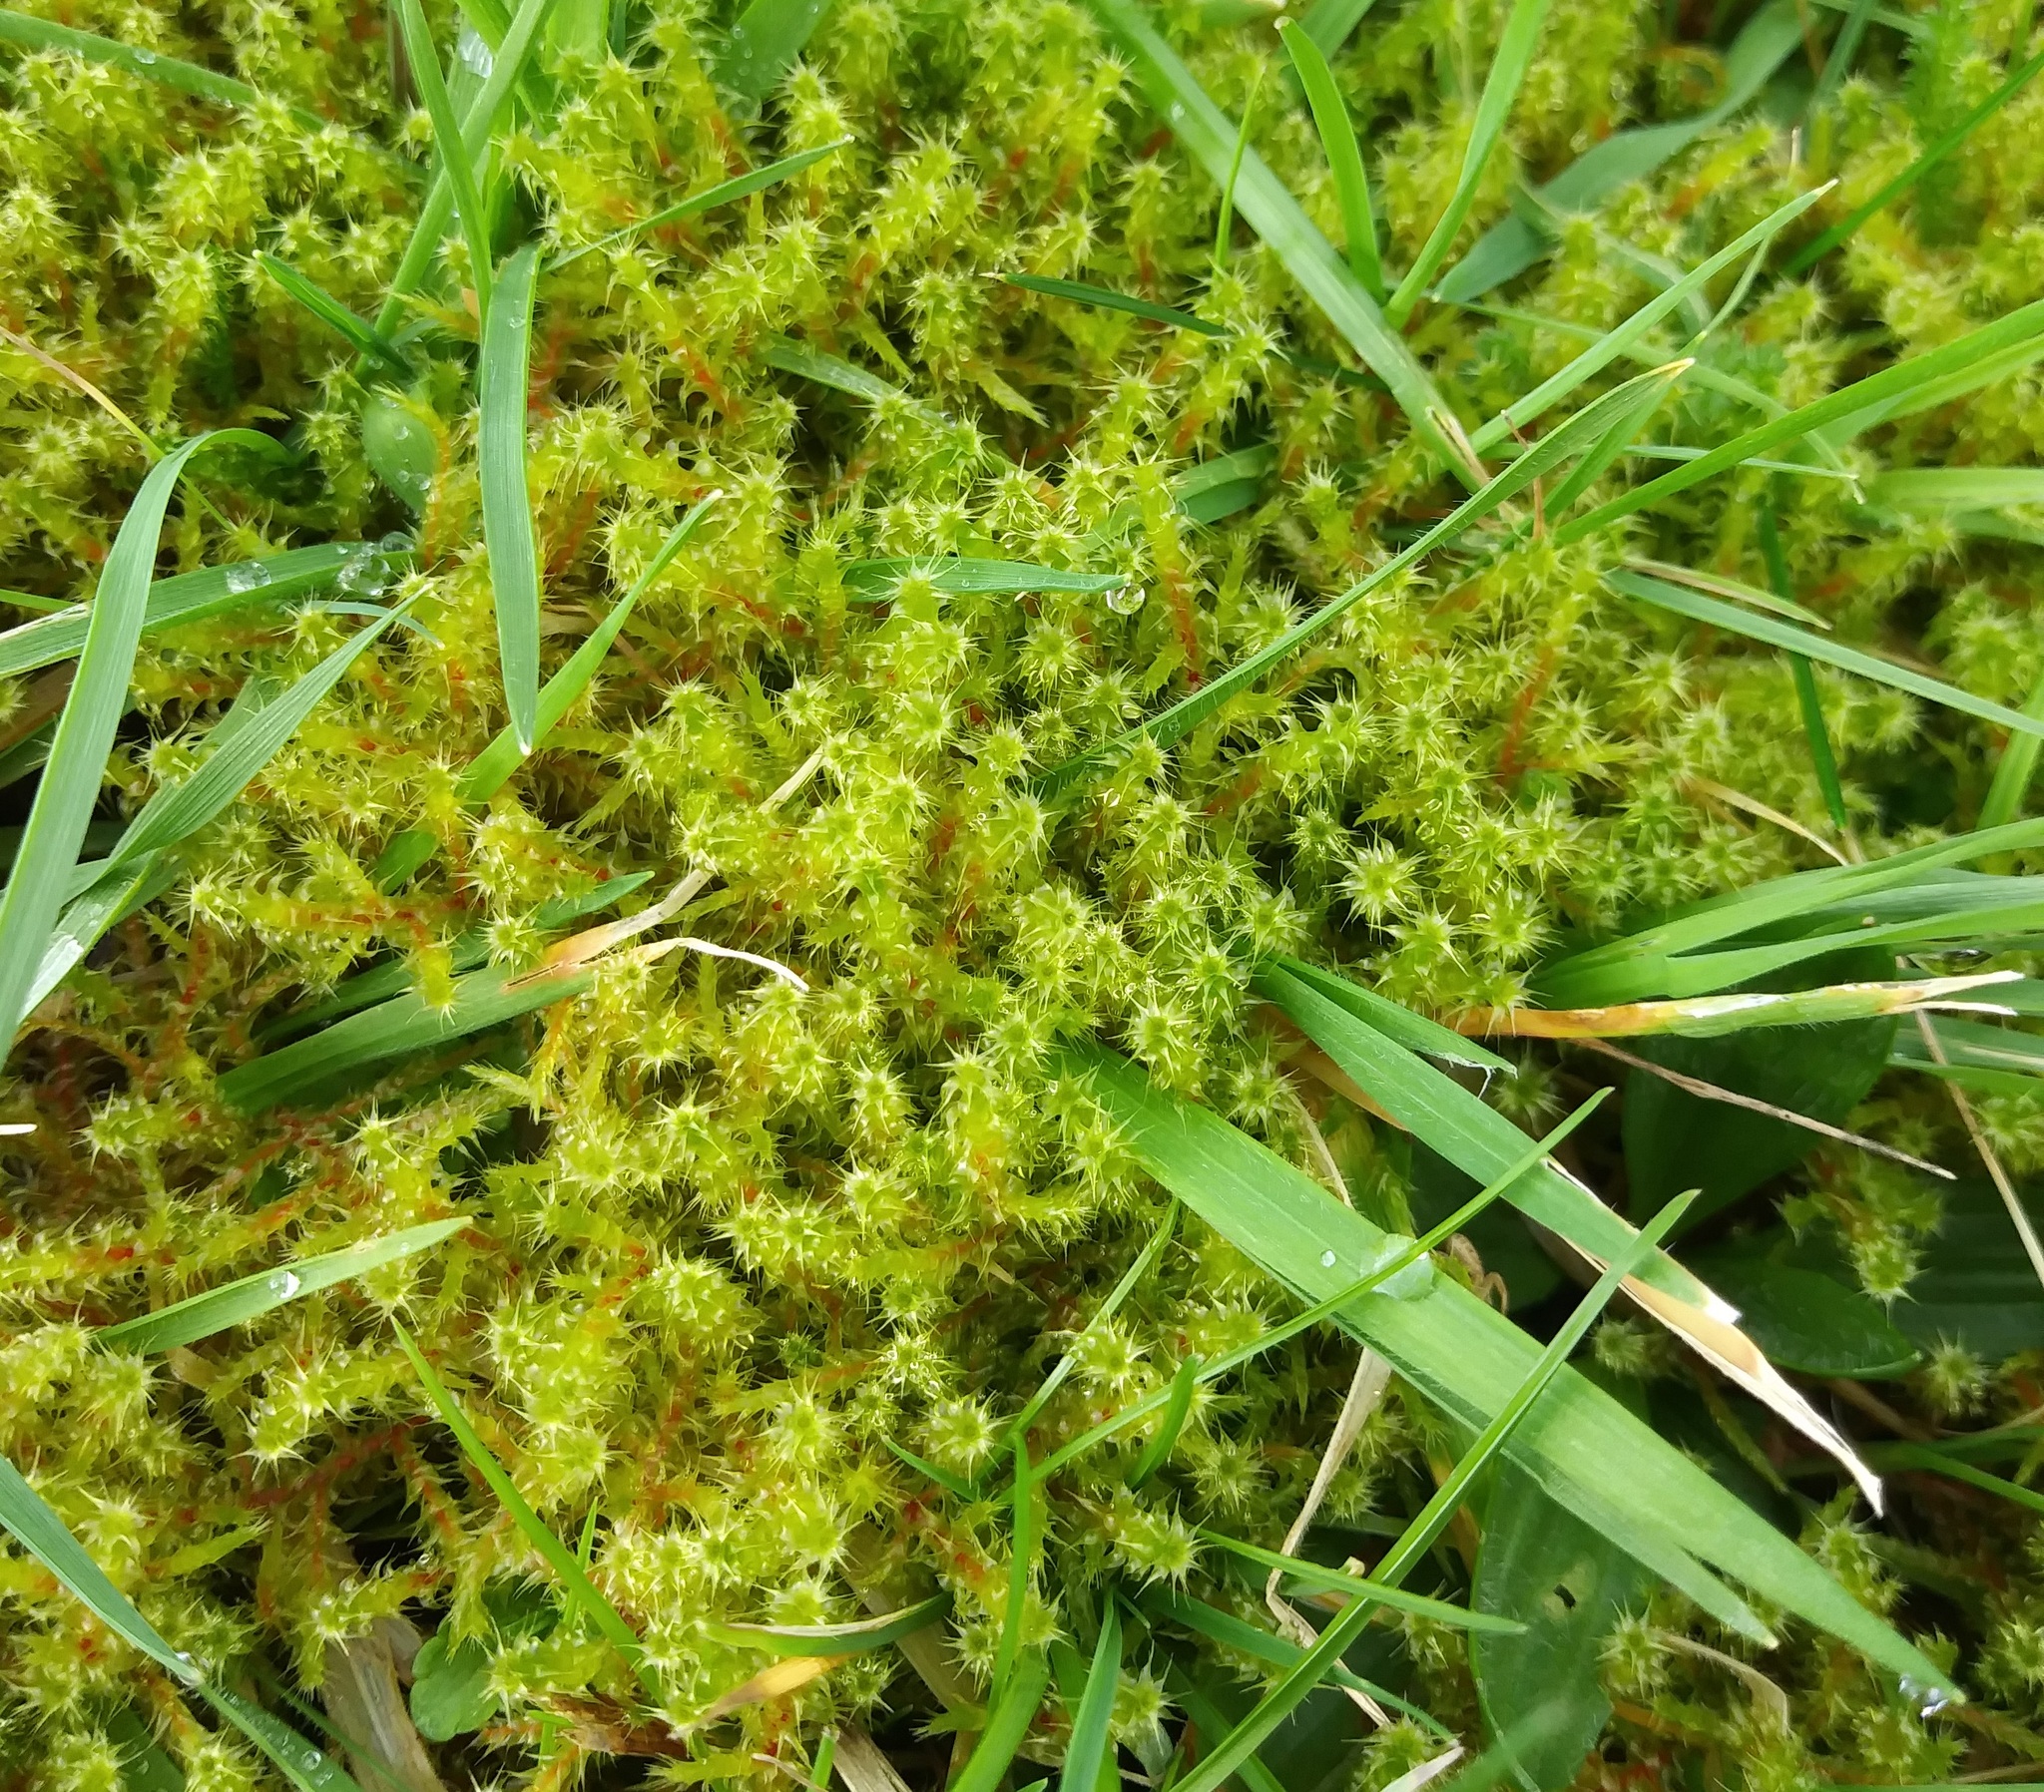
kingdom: Plantae
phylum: Bryophyta
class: Bryopsida
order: Hypnales
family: Hylocomiaceae
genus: Rhytidiadelphus
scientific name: Rhytidiadelphus squarrosus
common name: Springy turf-moss
